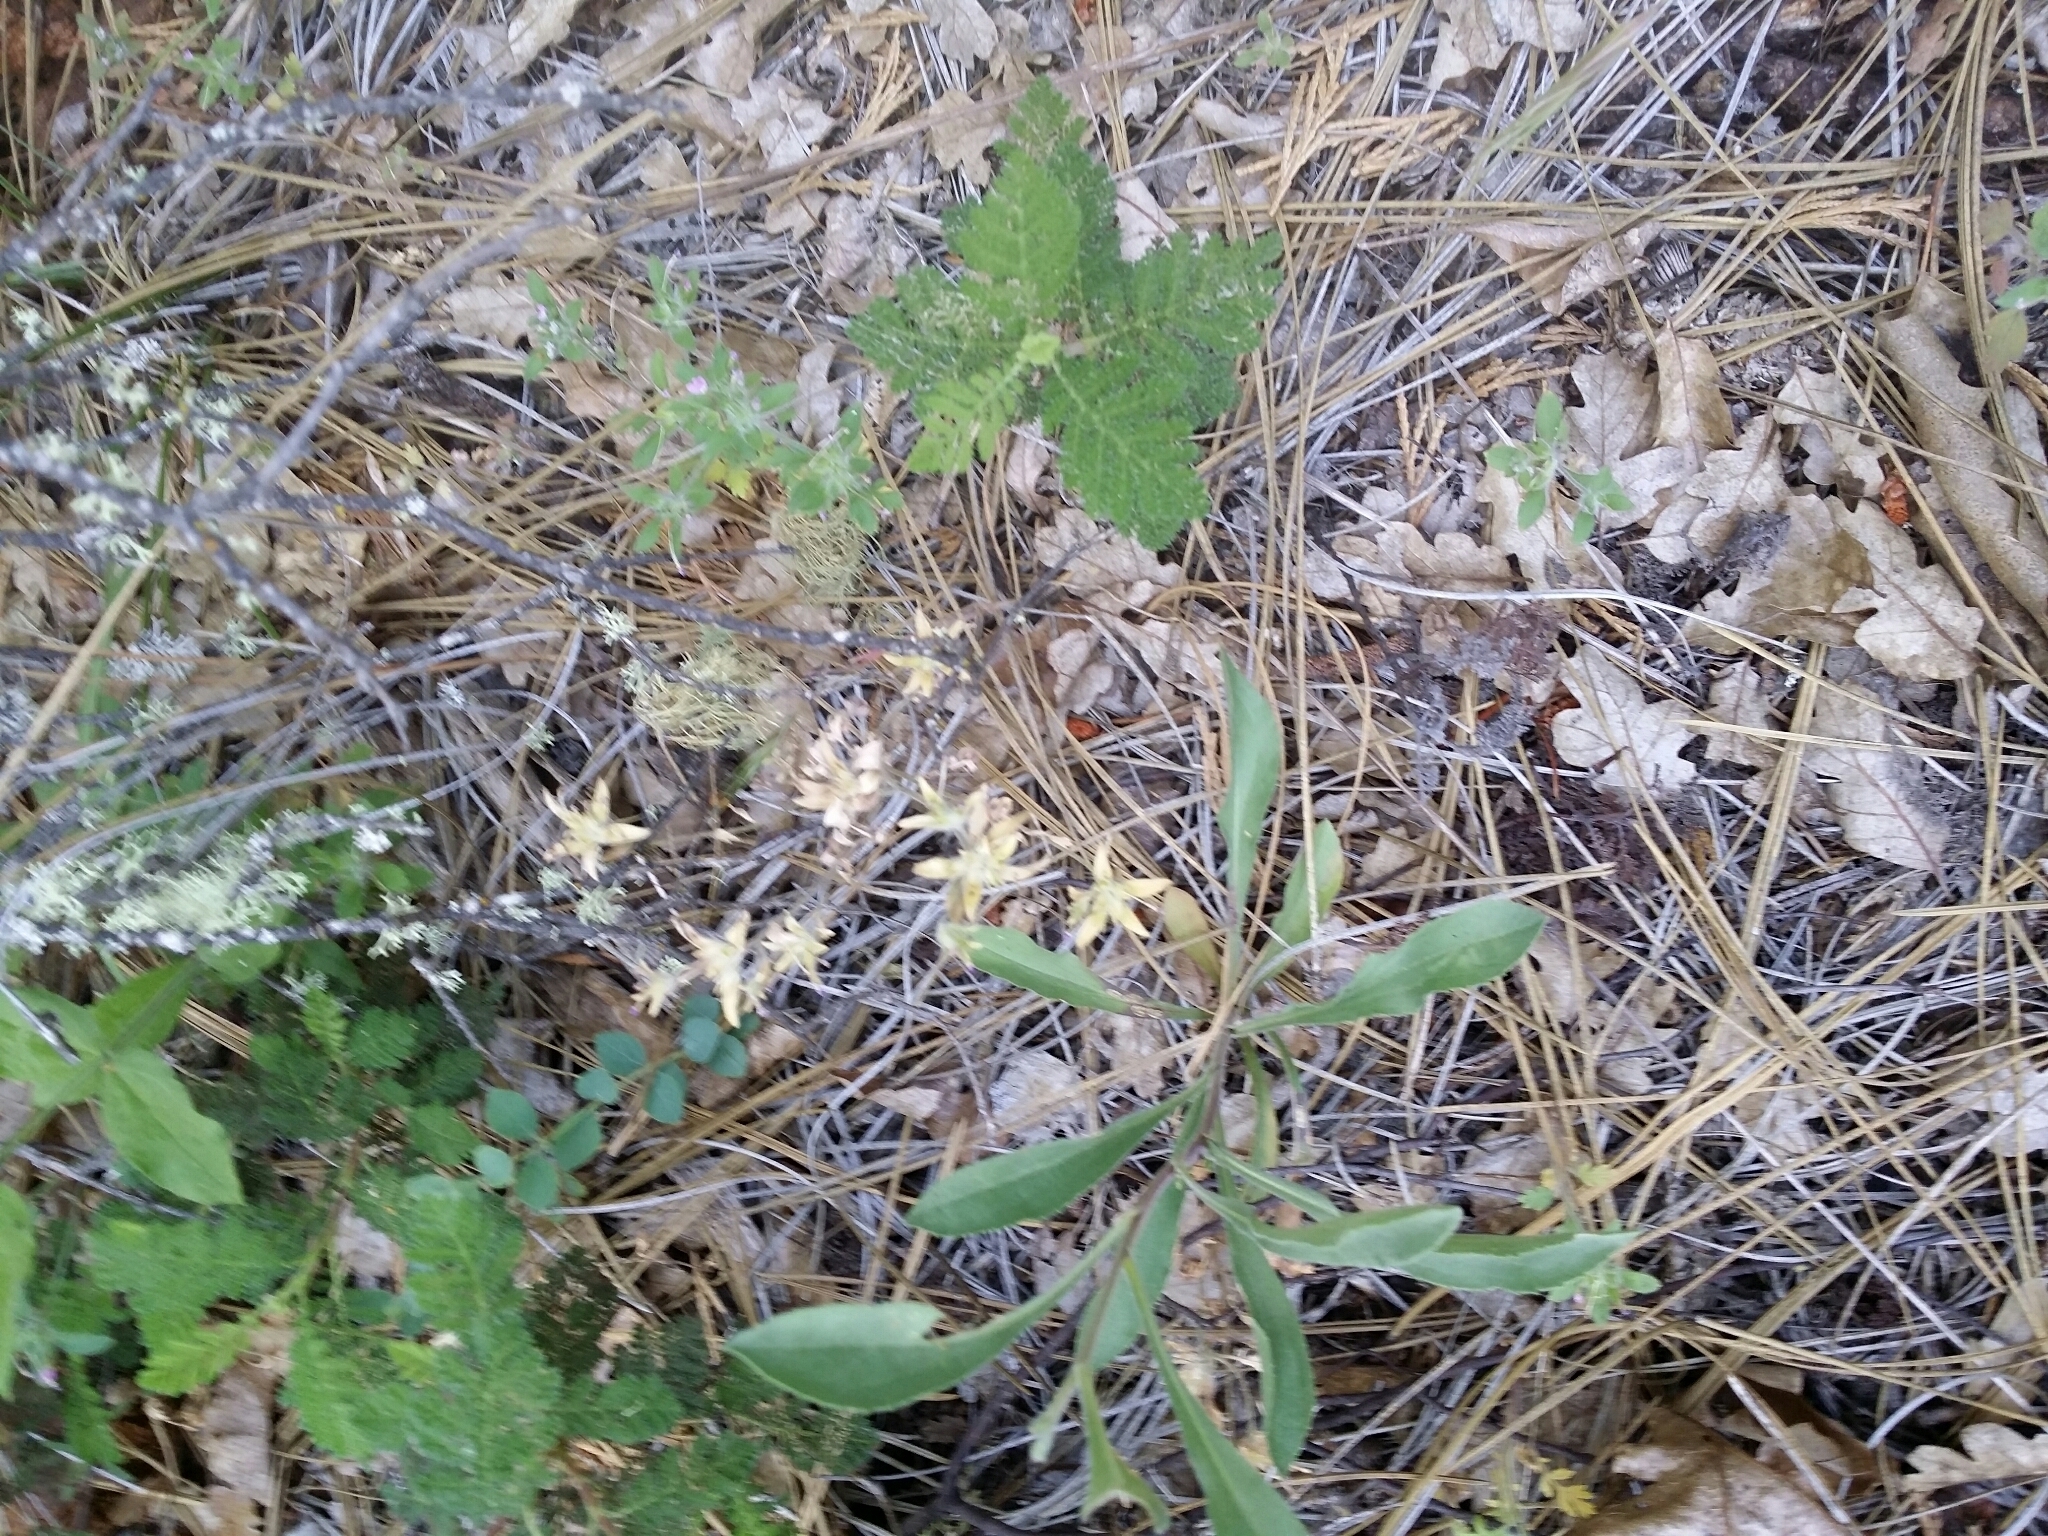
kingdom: Plantae
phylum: Tracheophyta
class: Magnoliopsida
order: Rosales
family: Rosaceae
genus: Chamaebatia
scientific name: Chamaebatia foliolosa
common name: Mountain misery
